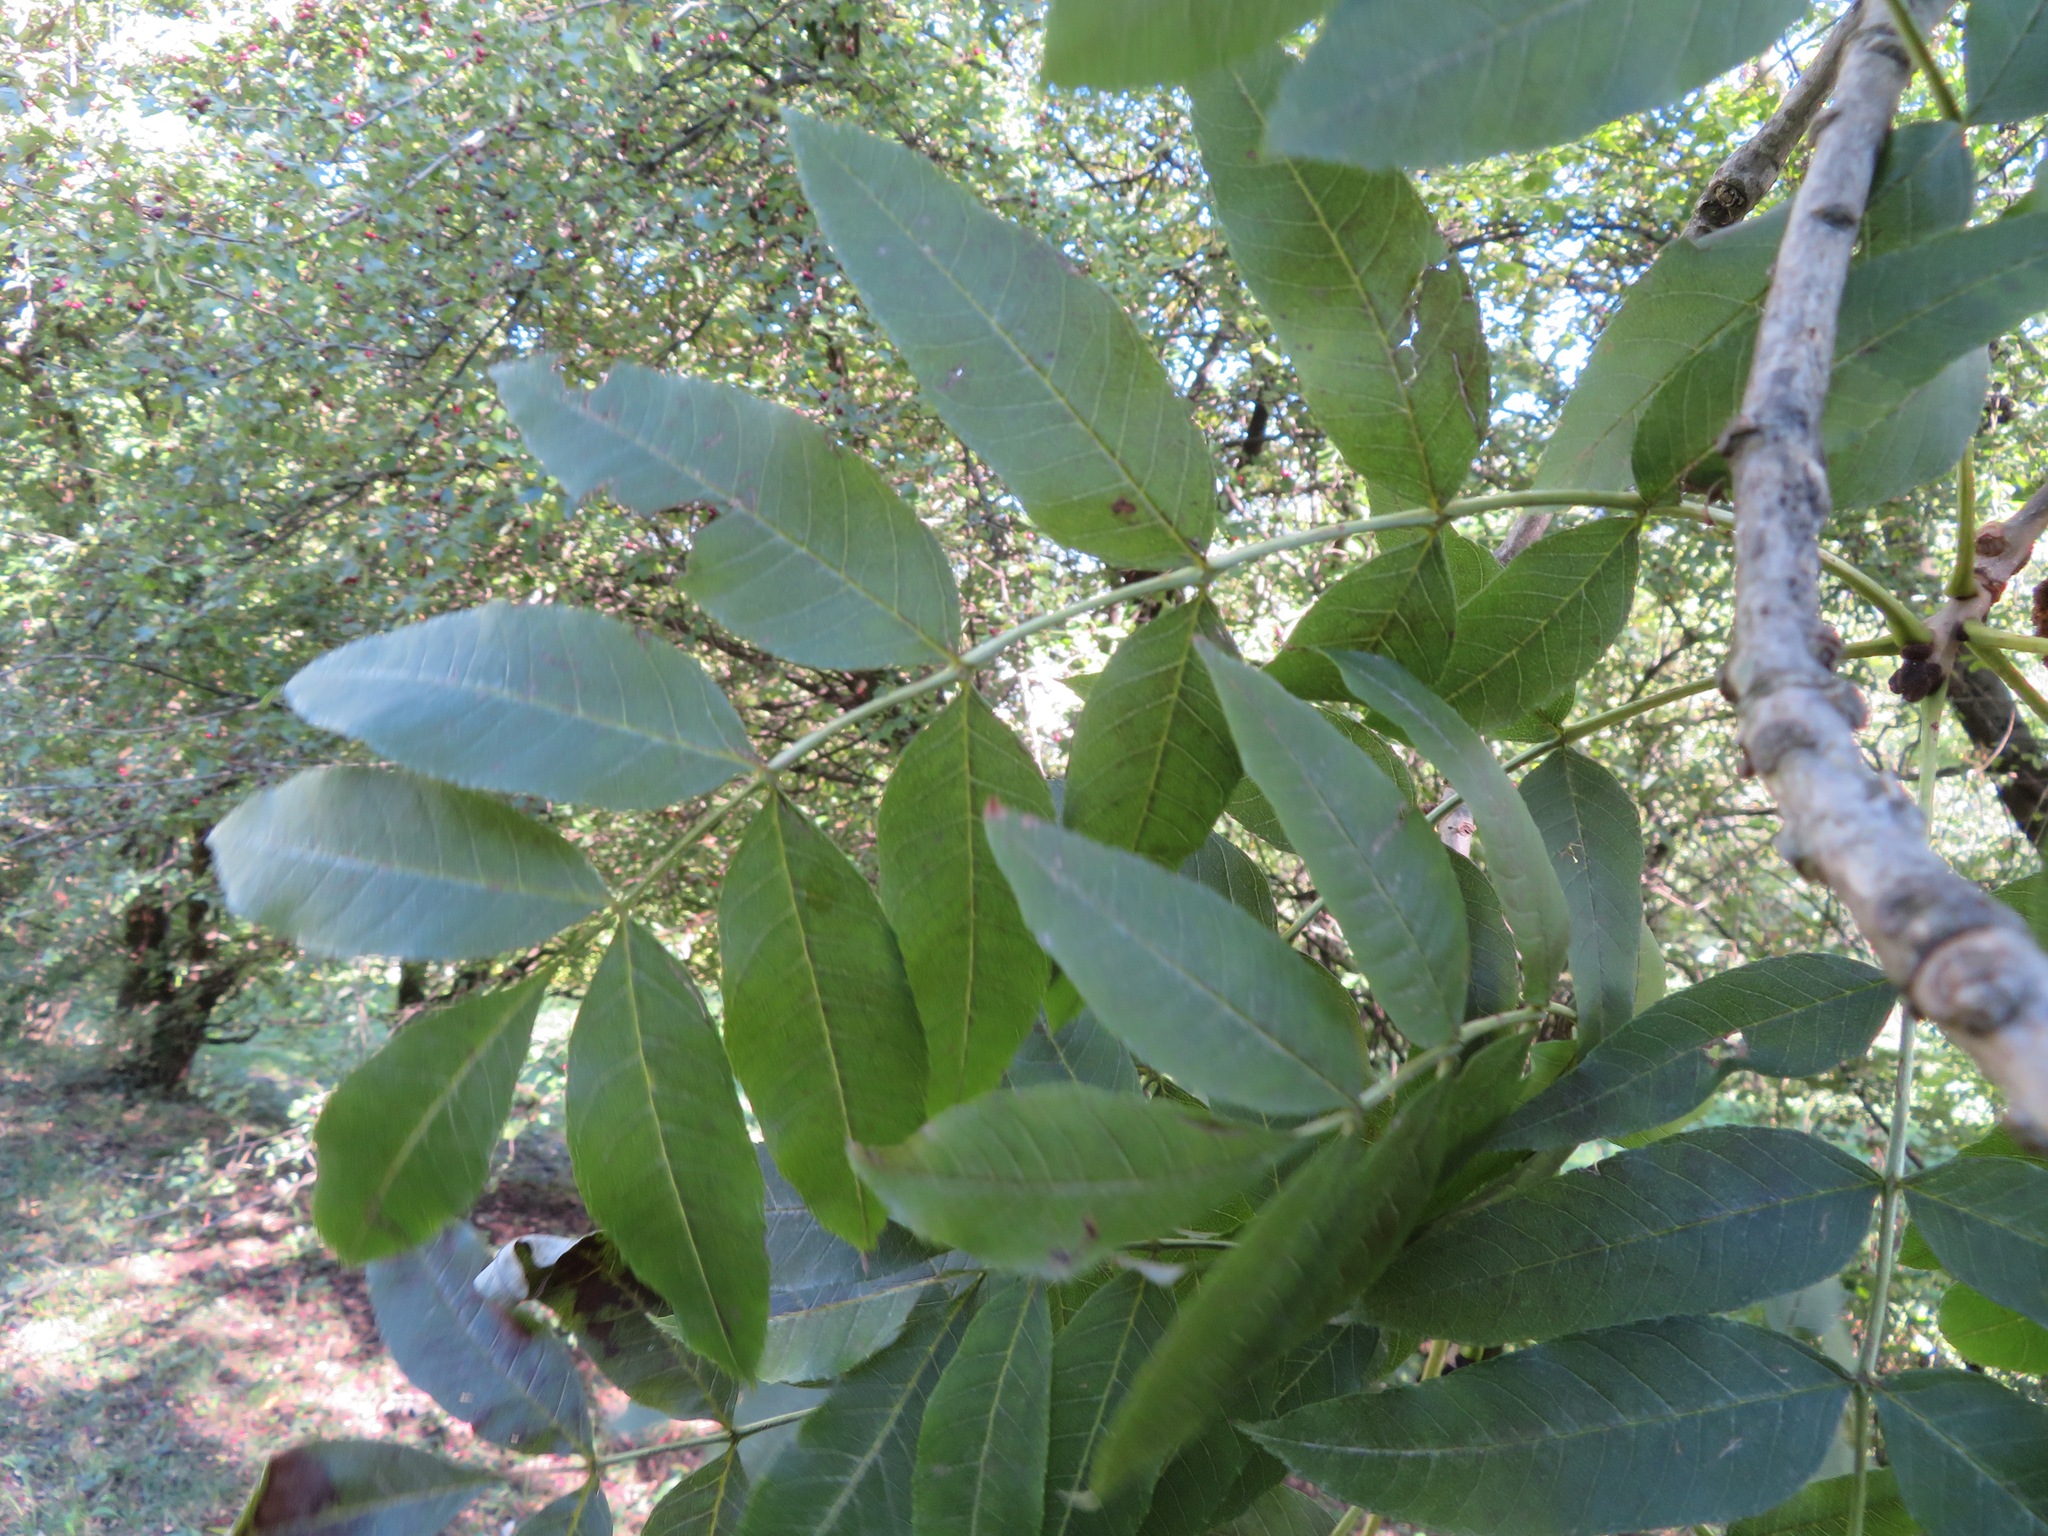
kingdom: Plantae
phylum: Tracheophyta
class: Magnoliopsida
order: Lamiales
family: Oleaceae
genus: Fraxinus
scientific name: Fraxinus excelsior
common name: European ash
